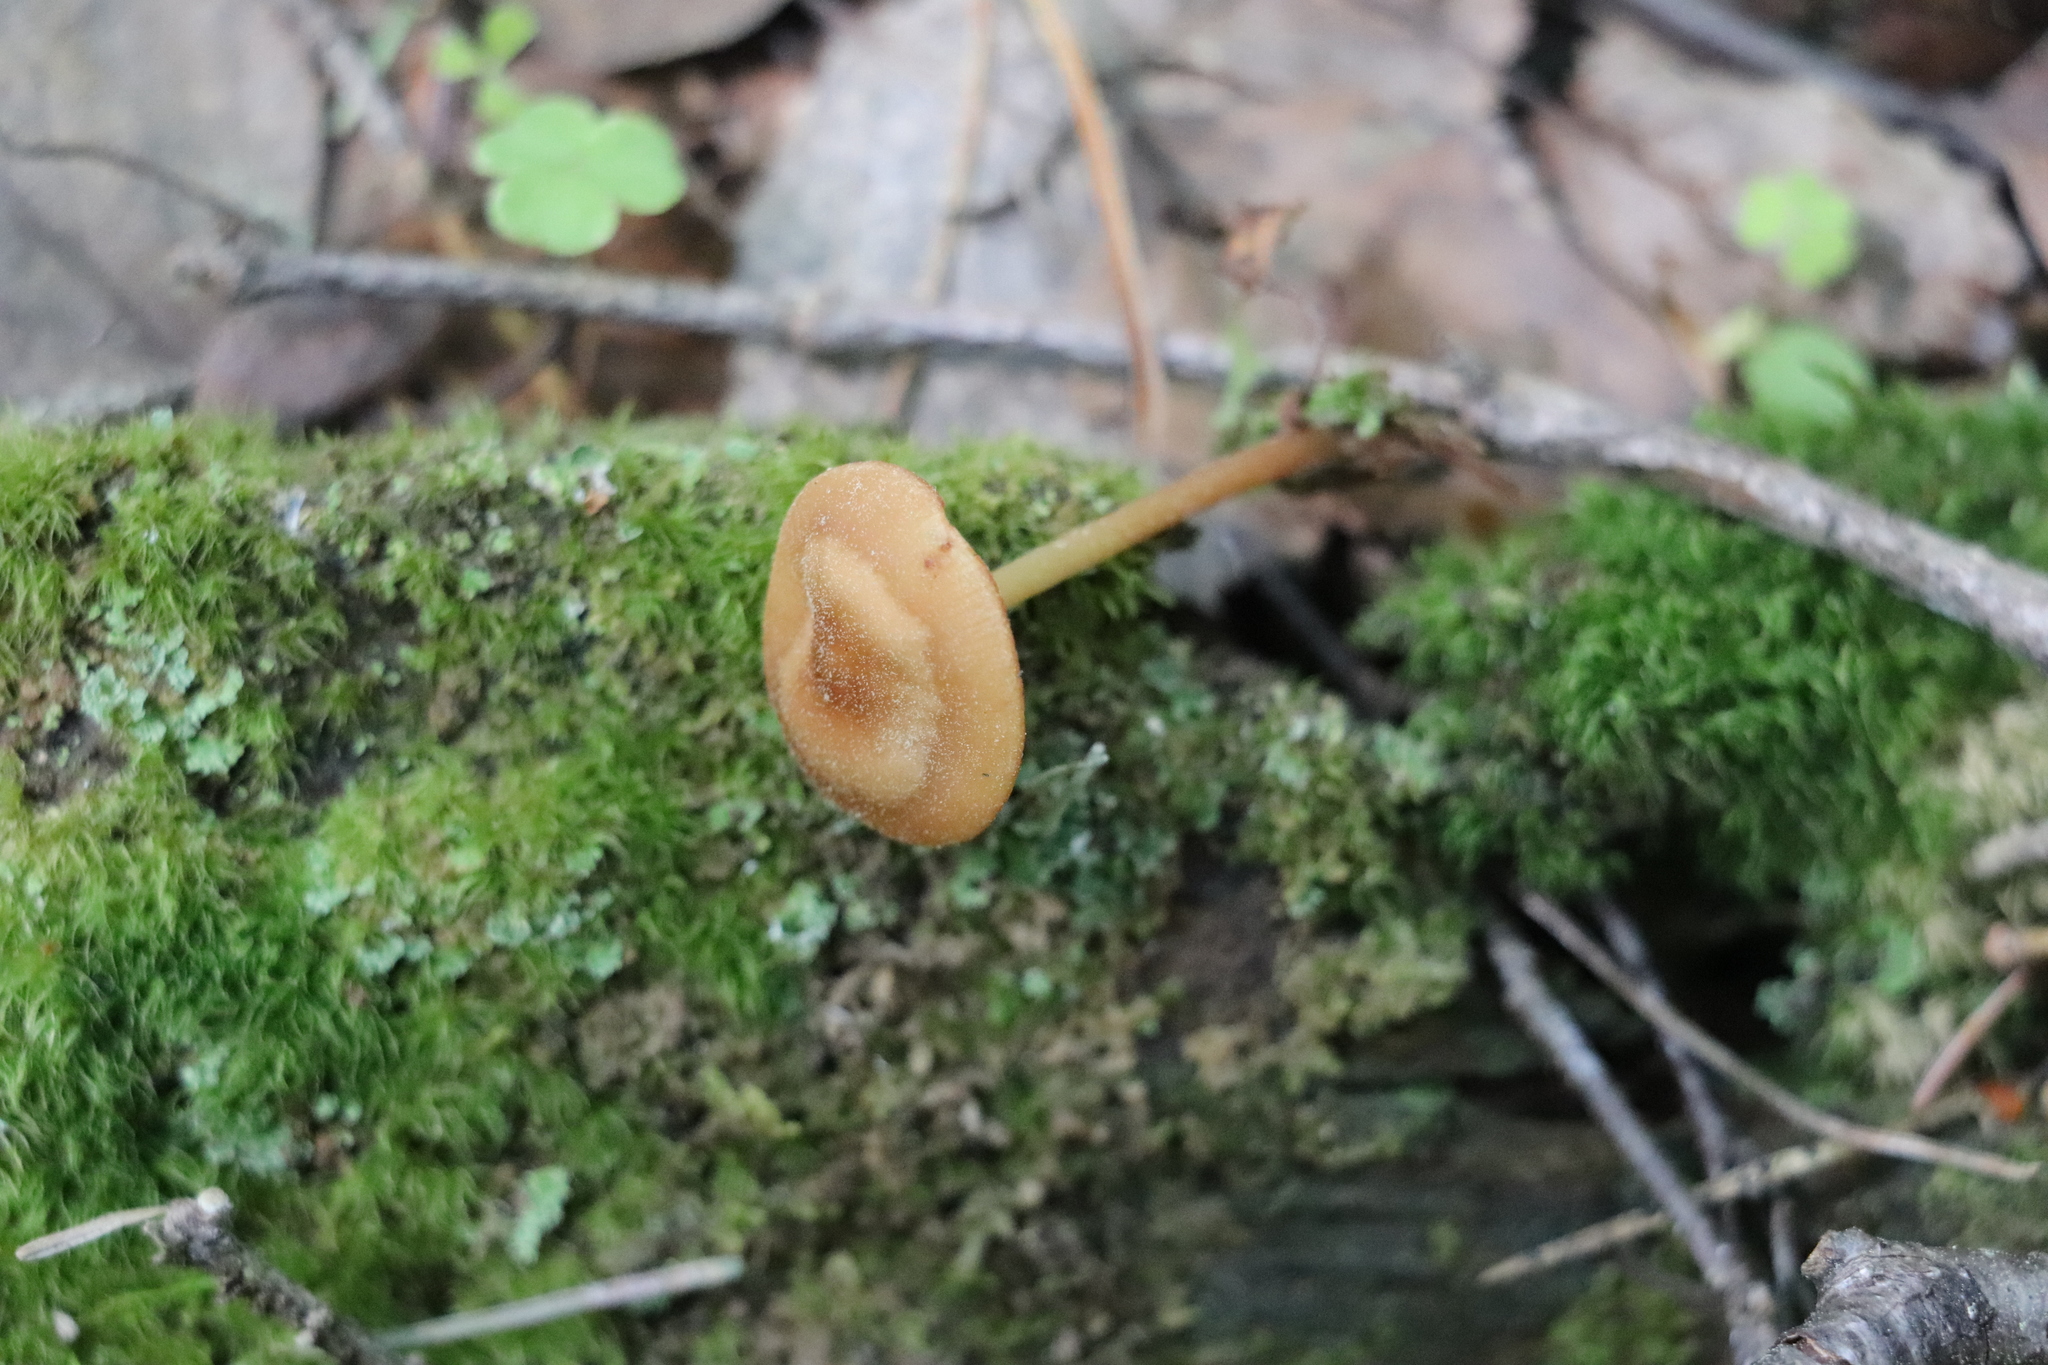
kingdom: Fungi
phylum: Basidiomycota
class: Agaricomycetes
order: Agaricales
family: Omphalotaceae
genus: Gymnopus
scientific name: Gymnopus dryophilus
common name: Penny top
